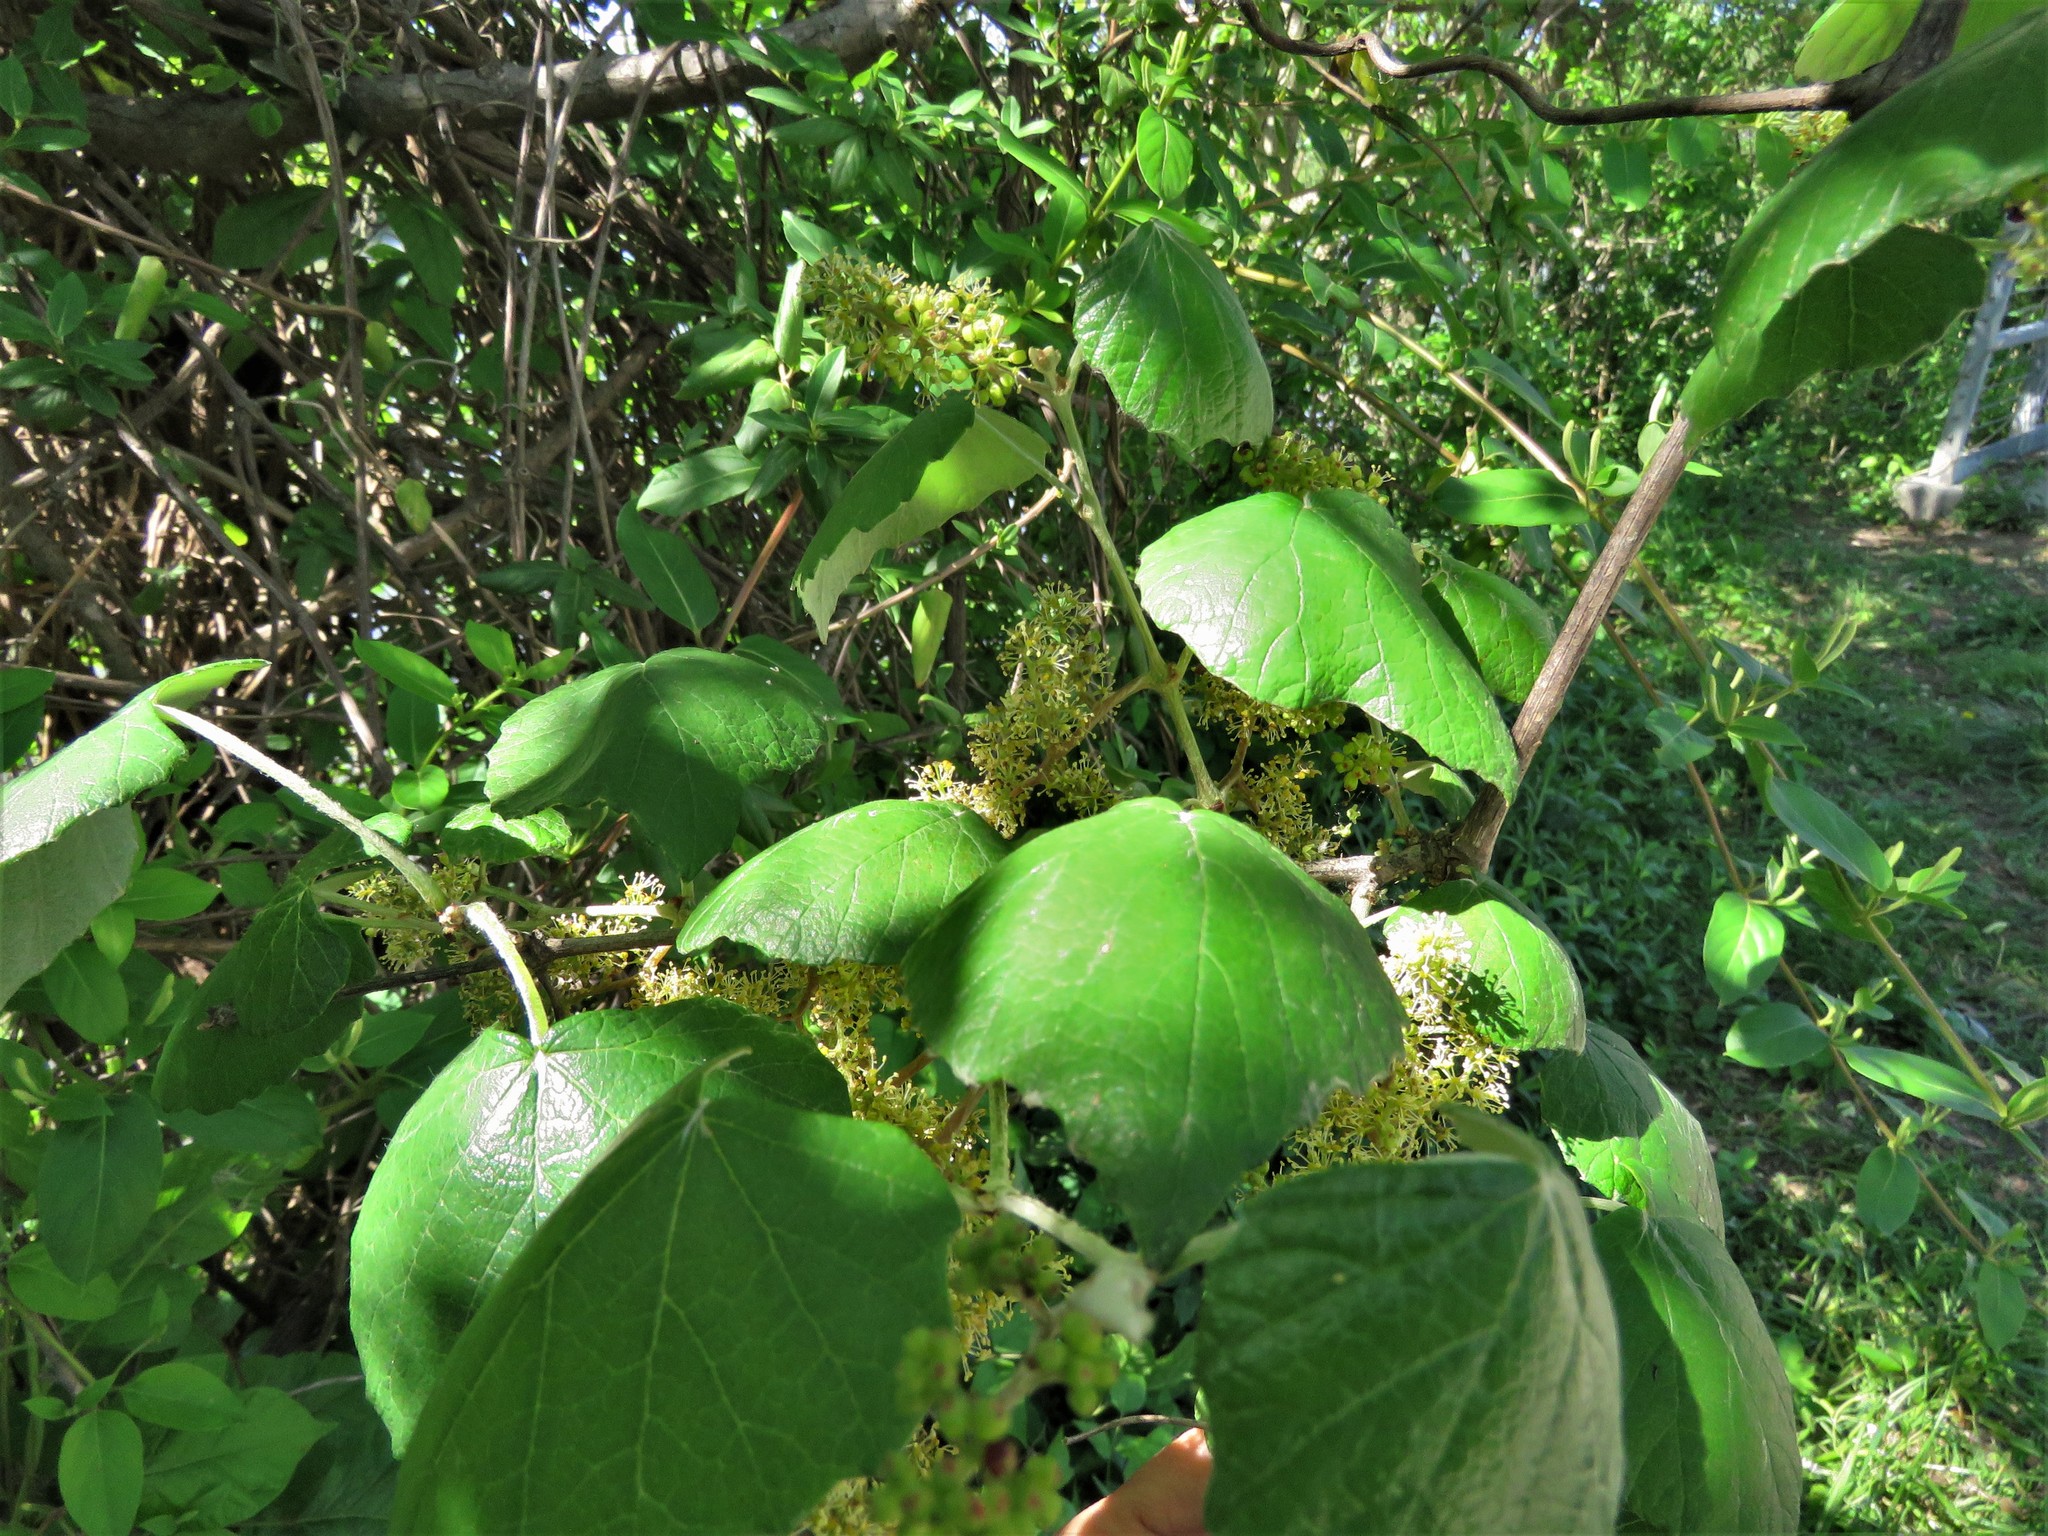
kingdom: Plantae
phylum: Tracheophyta
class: Magnoliopsida
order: Vitales
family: Vitaceae
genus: Vitis
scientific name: Vitis mustangensis
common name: Mustang grape
